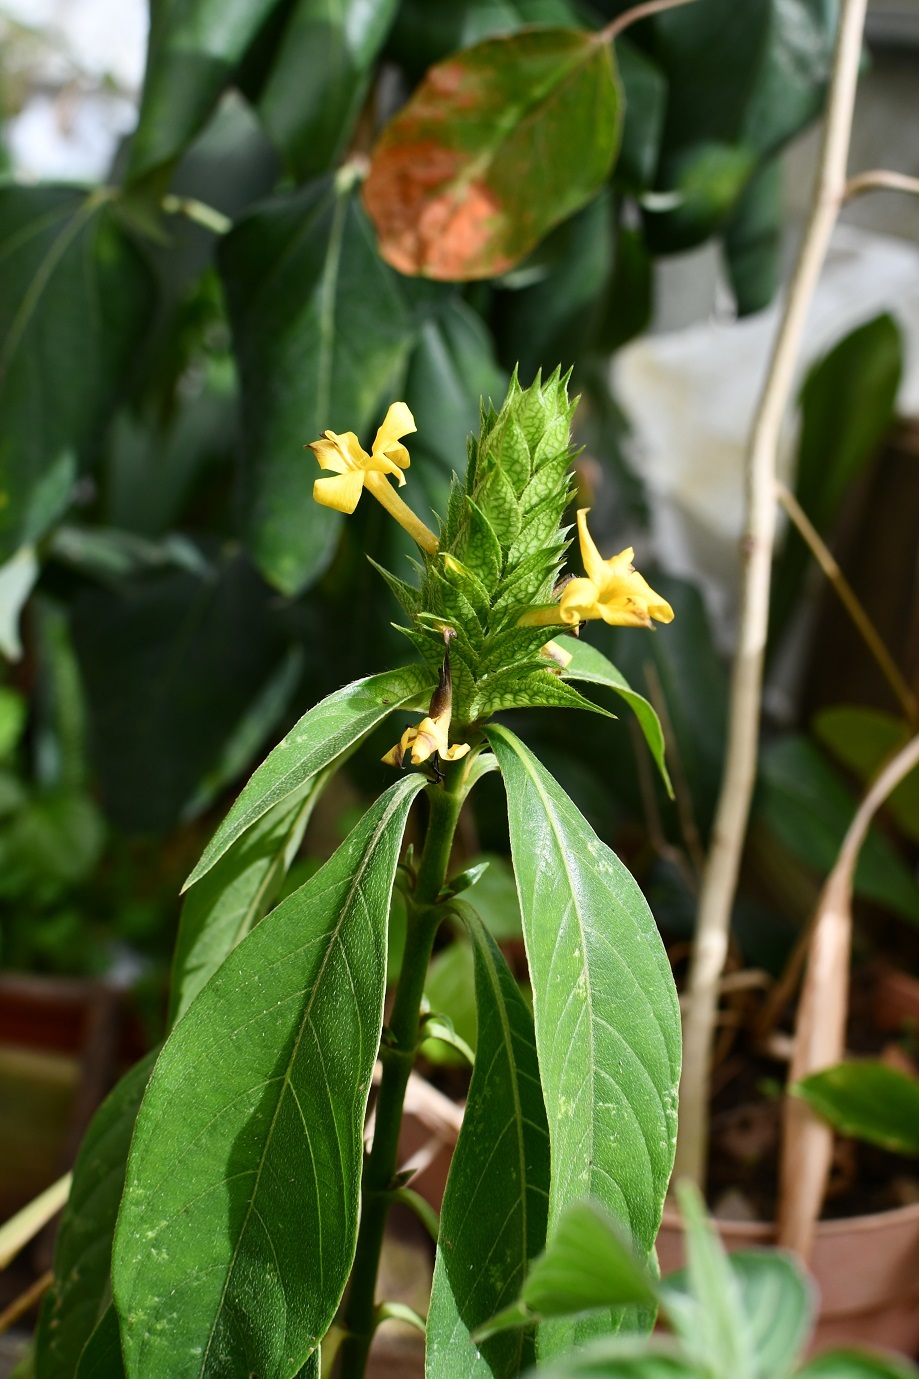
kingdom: Plantae
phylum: Tracheophyta
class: Magnoliopsida
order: Lamiales
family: Acanthaceae
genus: Barleria
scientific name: Barleria oenotheroides
